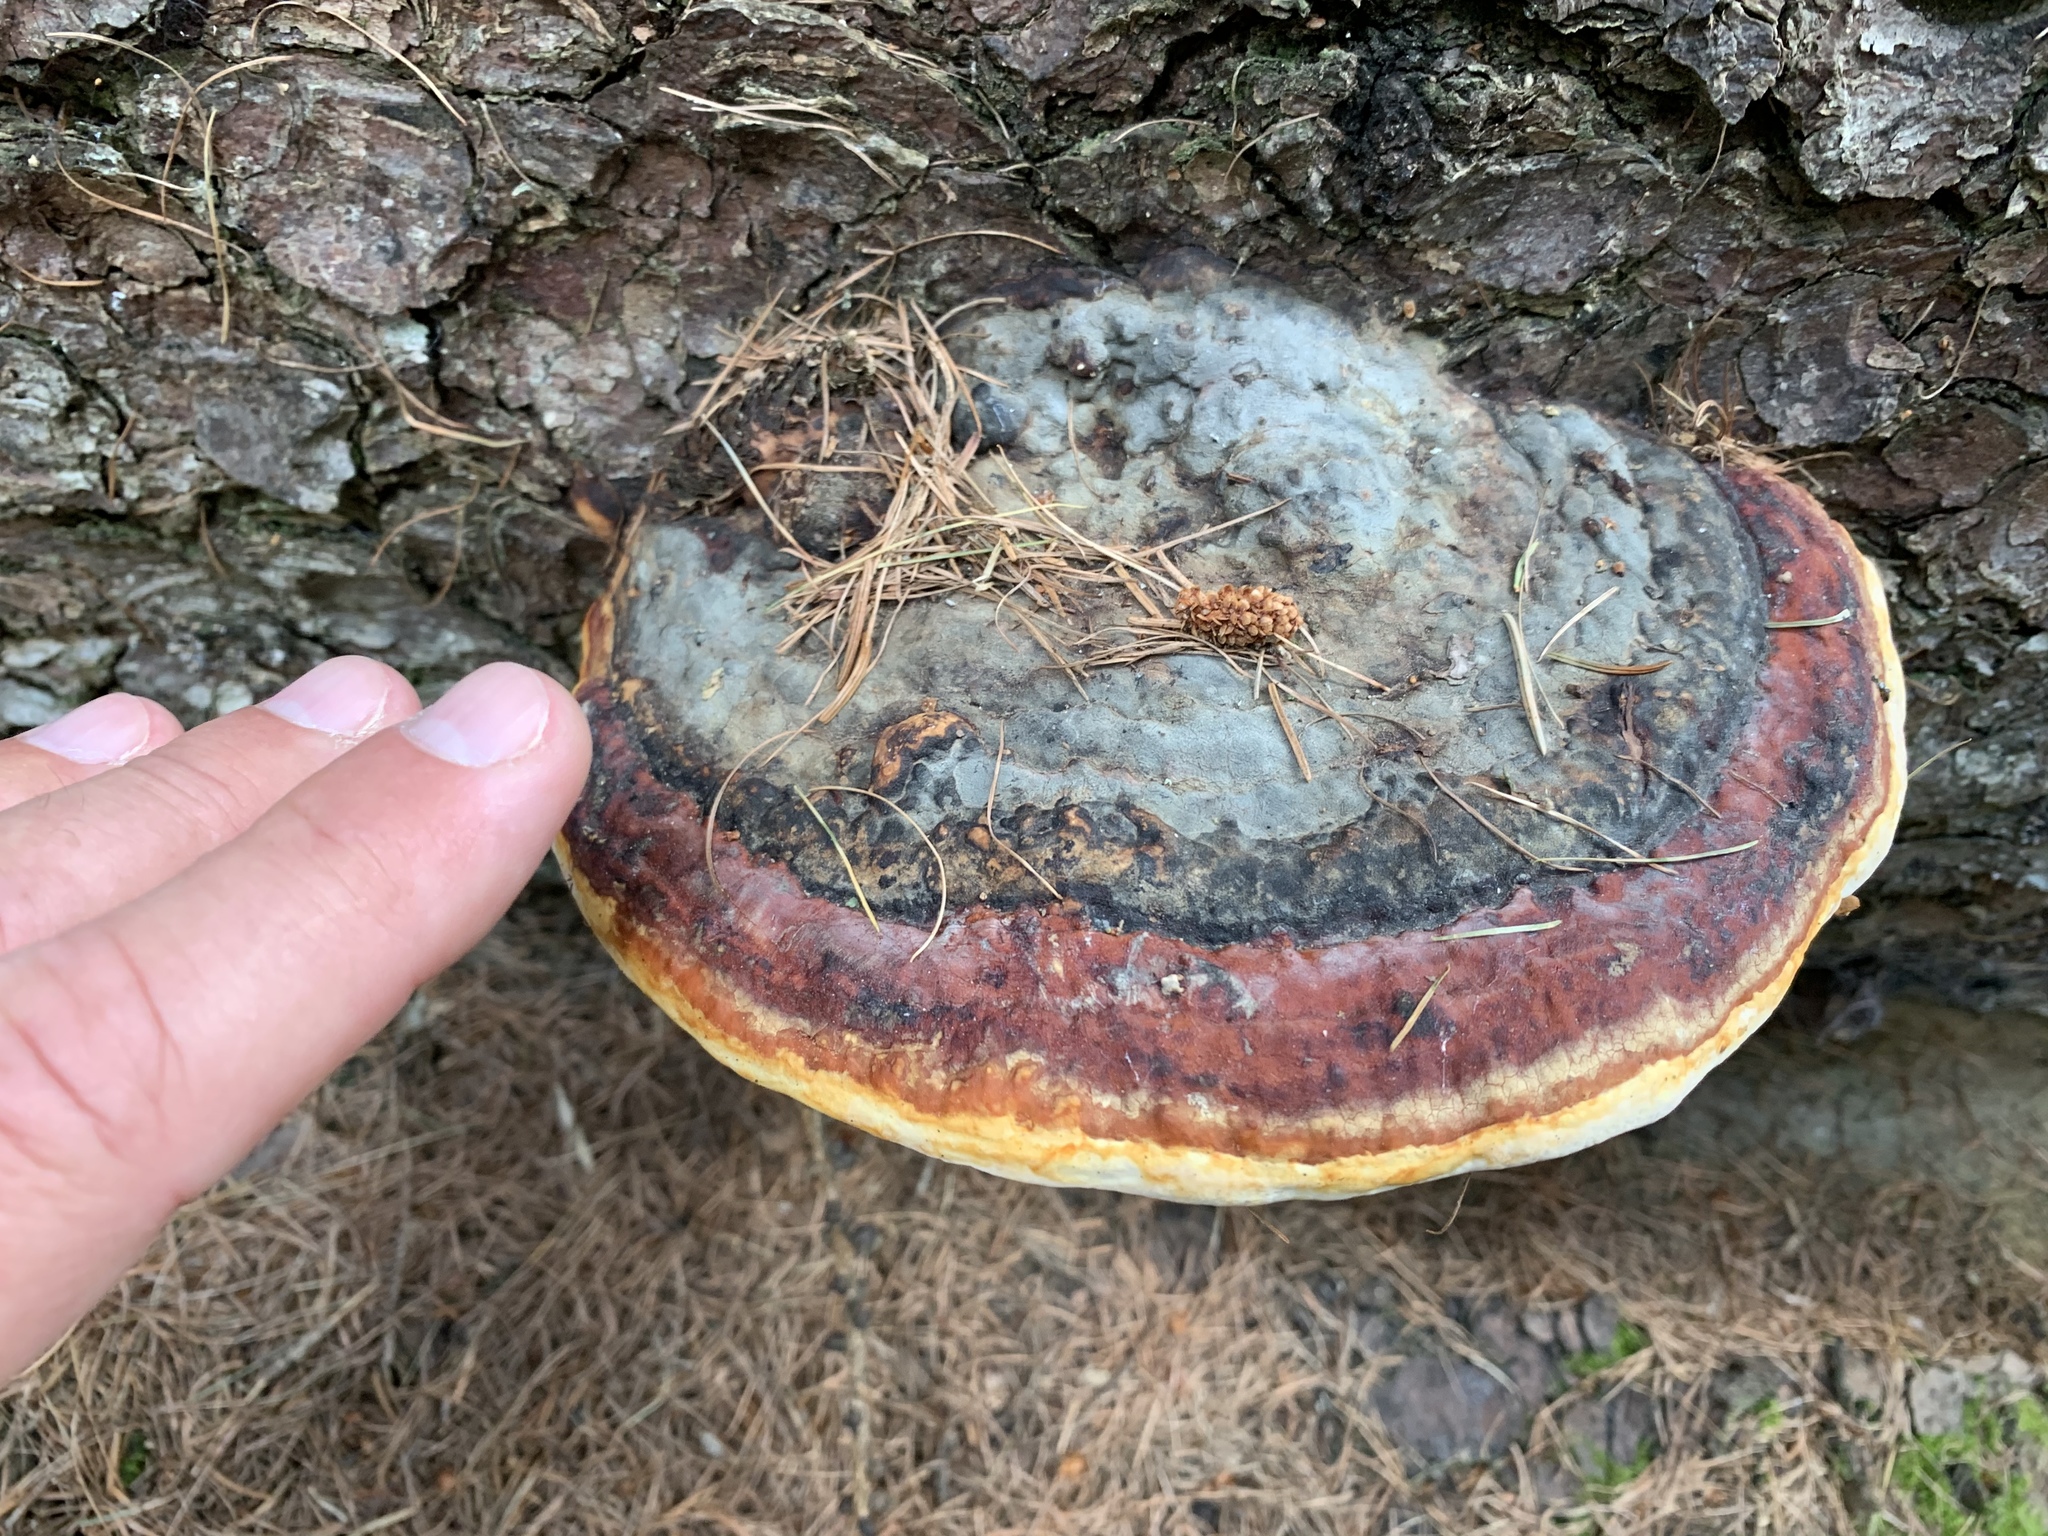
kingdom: Fungi
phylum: Basidiomycota
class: Agaricomycetes
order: Polyporales
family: Fomitopsidaceae
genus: Fomitopsis
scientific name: Fomitopsis pinicola
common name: Red-belted bracket
